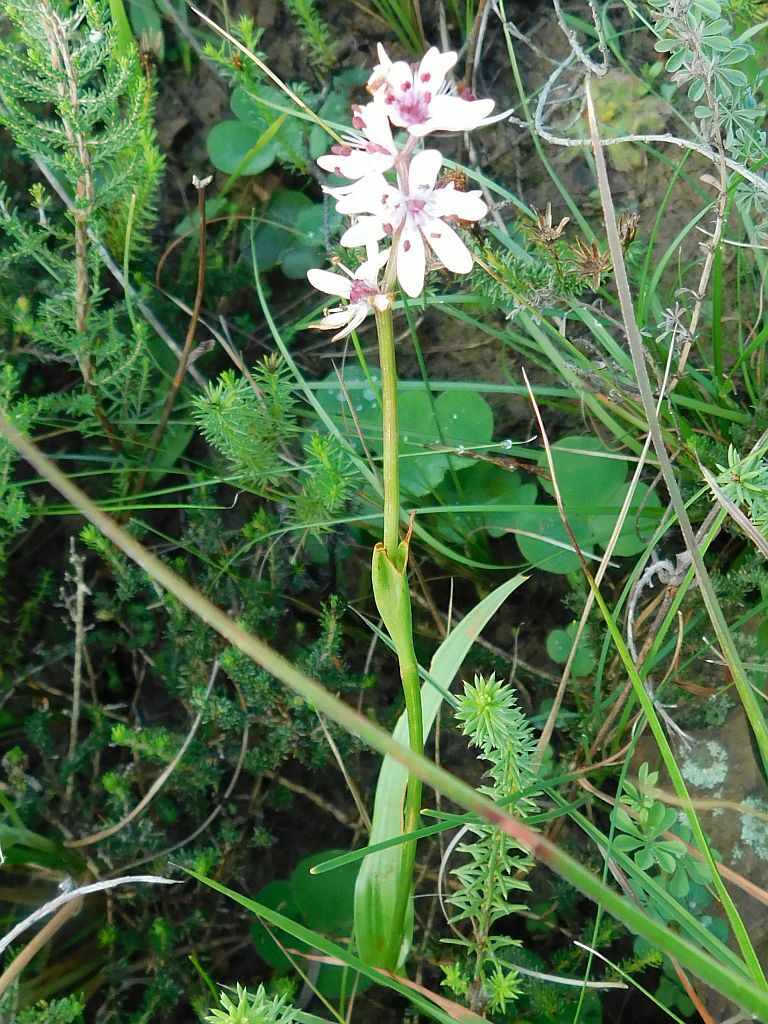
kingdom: Plantae
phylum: Tracheophyta
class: Liliopsida
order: Liliales
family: Colchicaceae
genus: Wurmbea
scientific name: Wurmbea punctata
